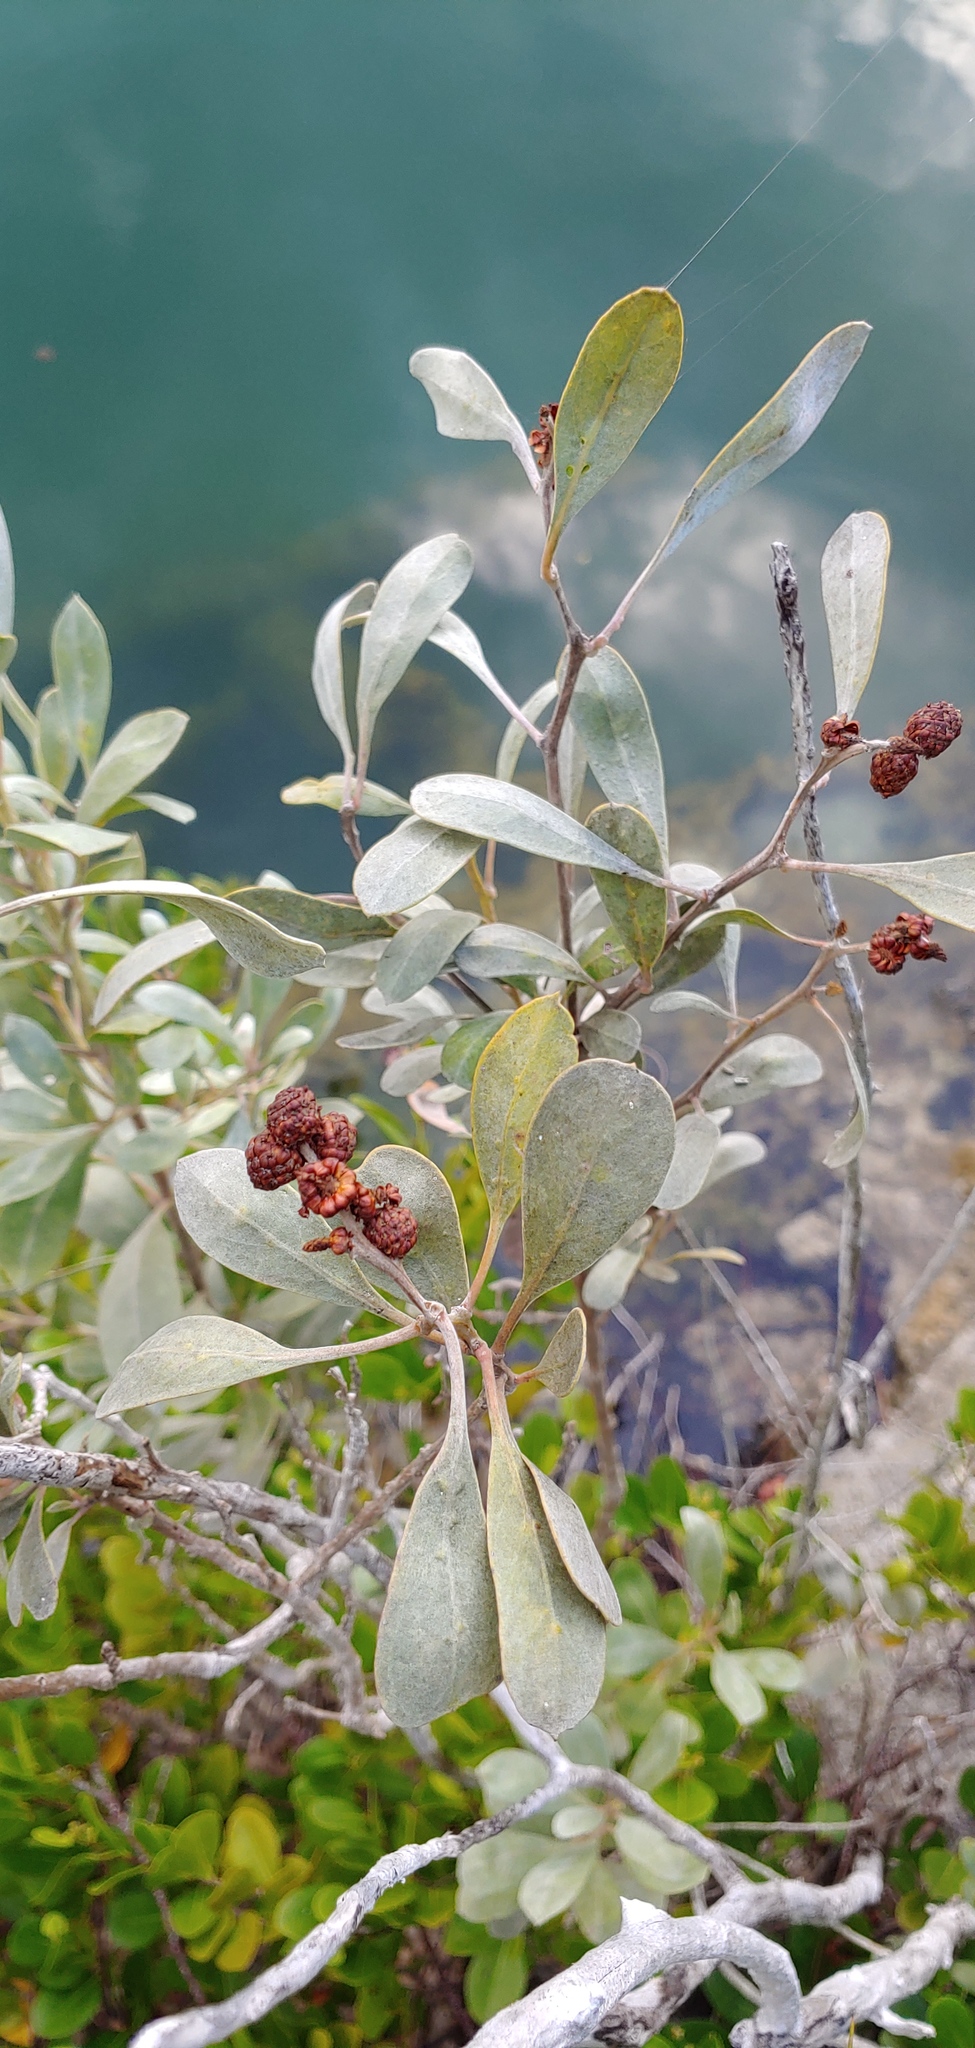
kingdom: Plantae
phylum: Tracheophyta
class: Magnoliopsida
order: Myrtales
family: Combretaceae
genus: Conocarpus
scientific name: Conocarpus erectus
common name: Button mangrove
